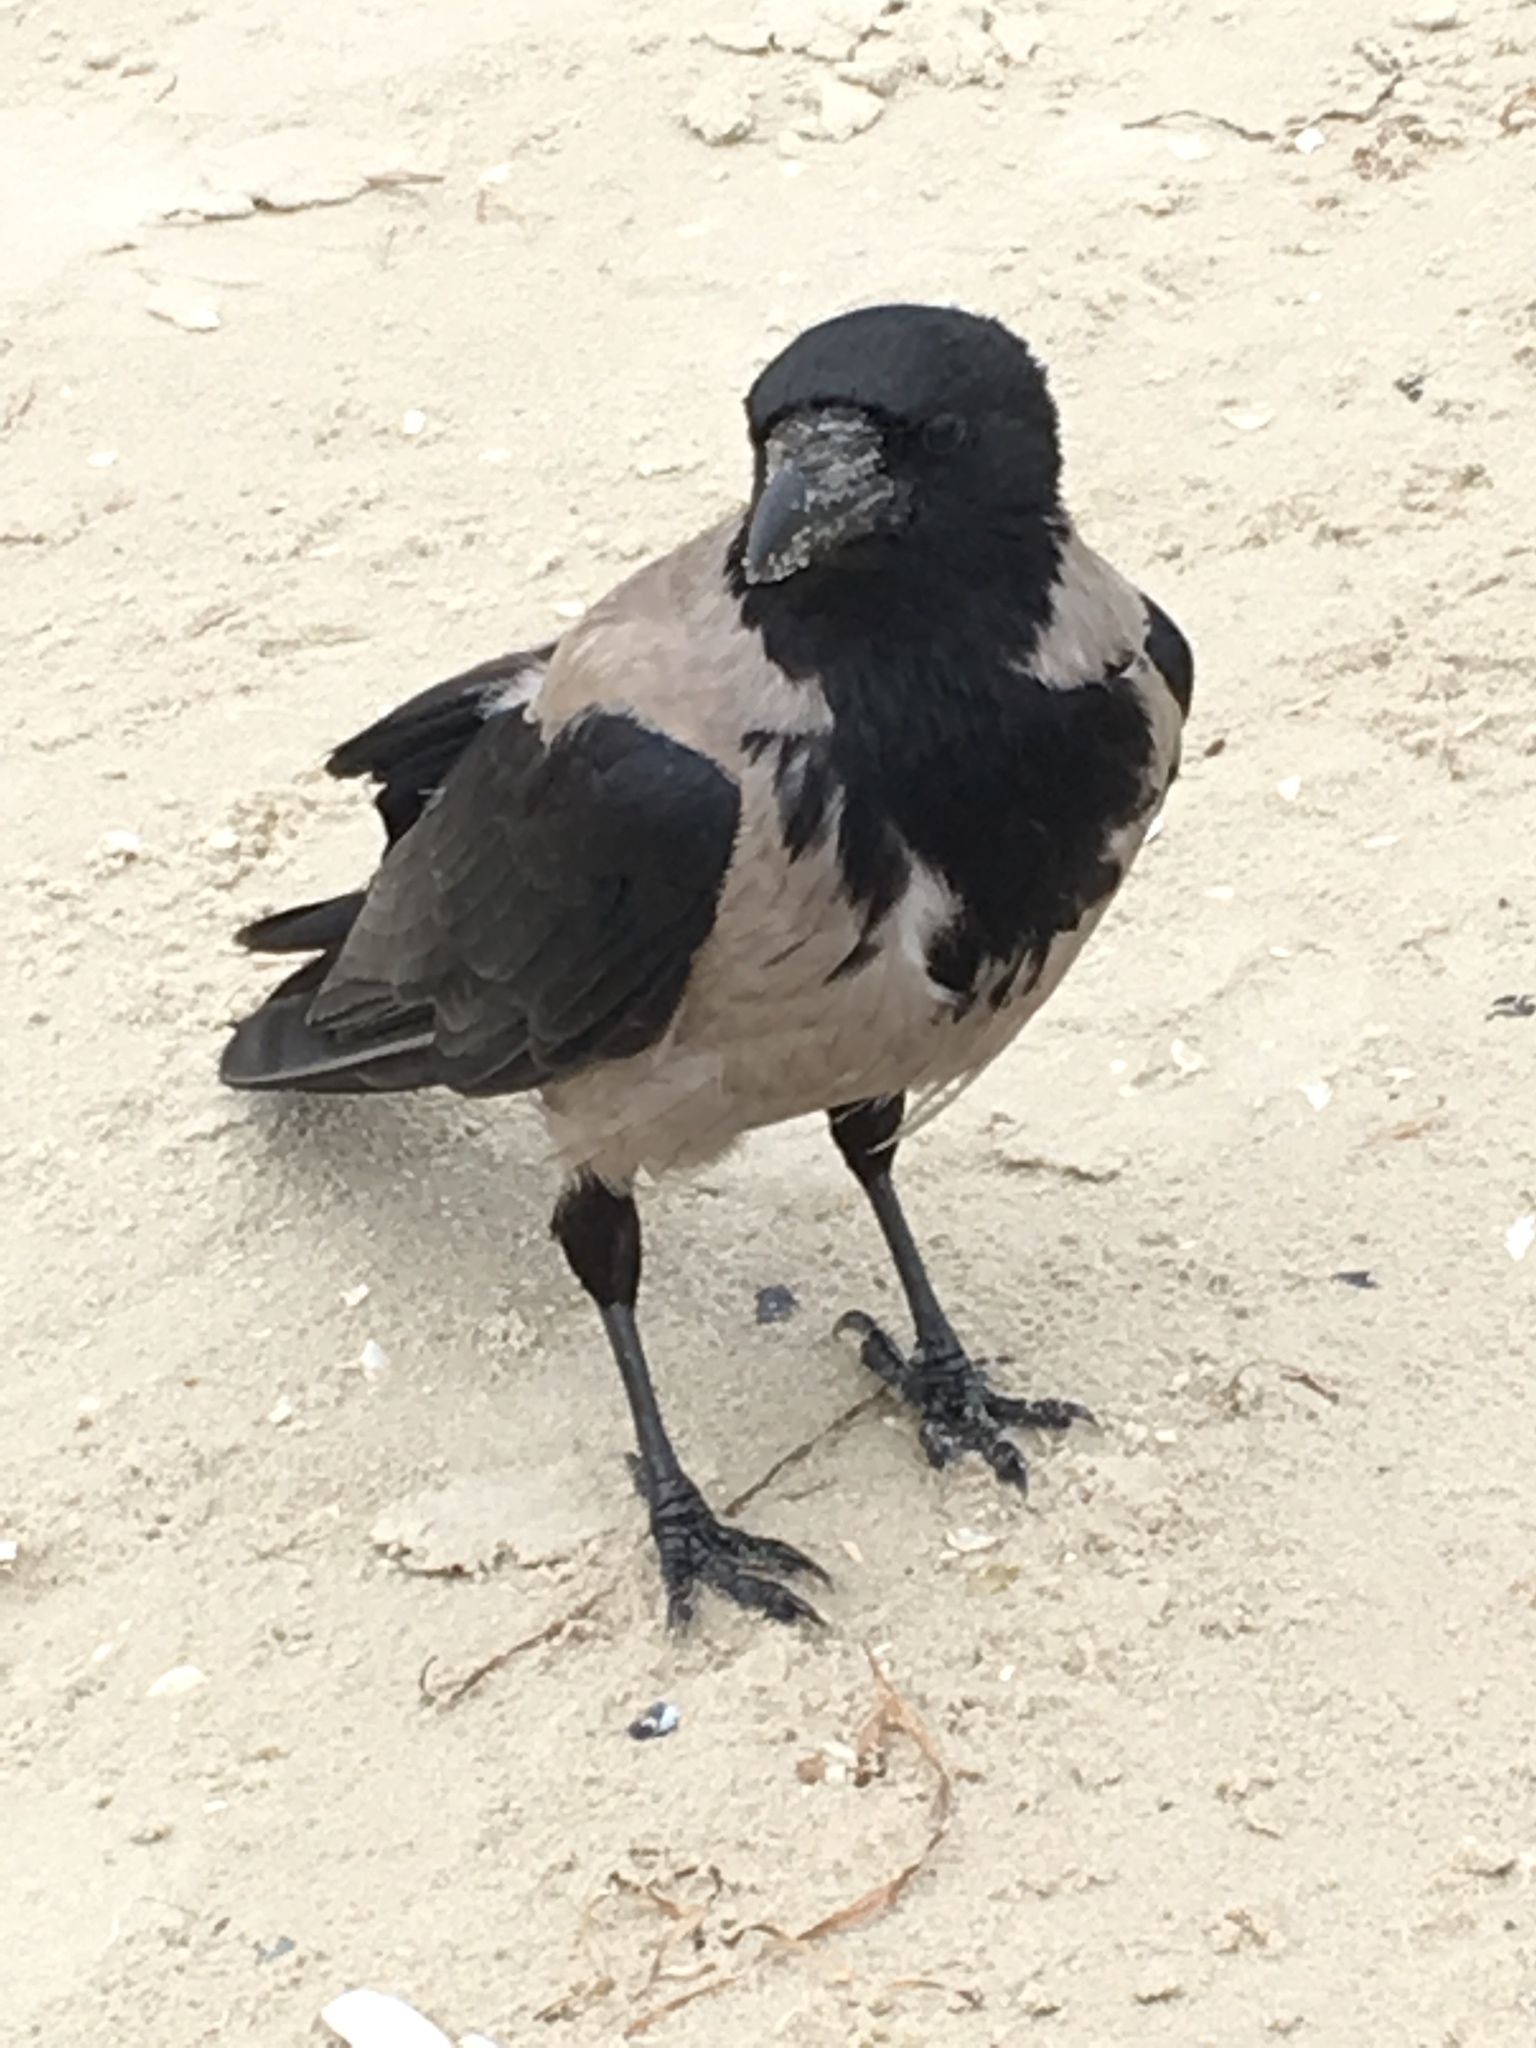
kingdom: Animalia
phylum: Chordata
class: Aves
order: Passeriformes
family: Corvidae
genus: Corvus
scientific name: Corvus cornix
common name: Hooded crow
